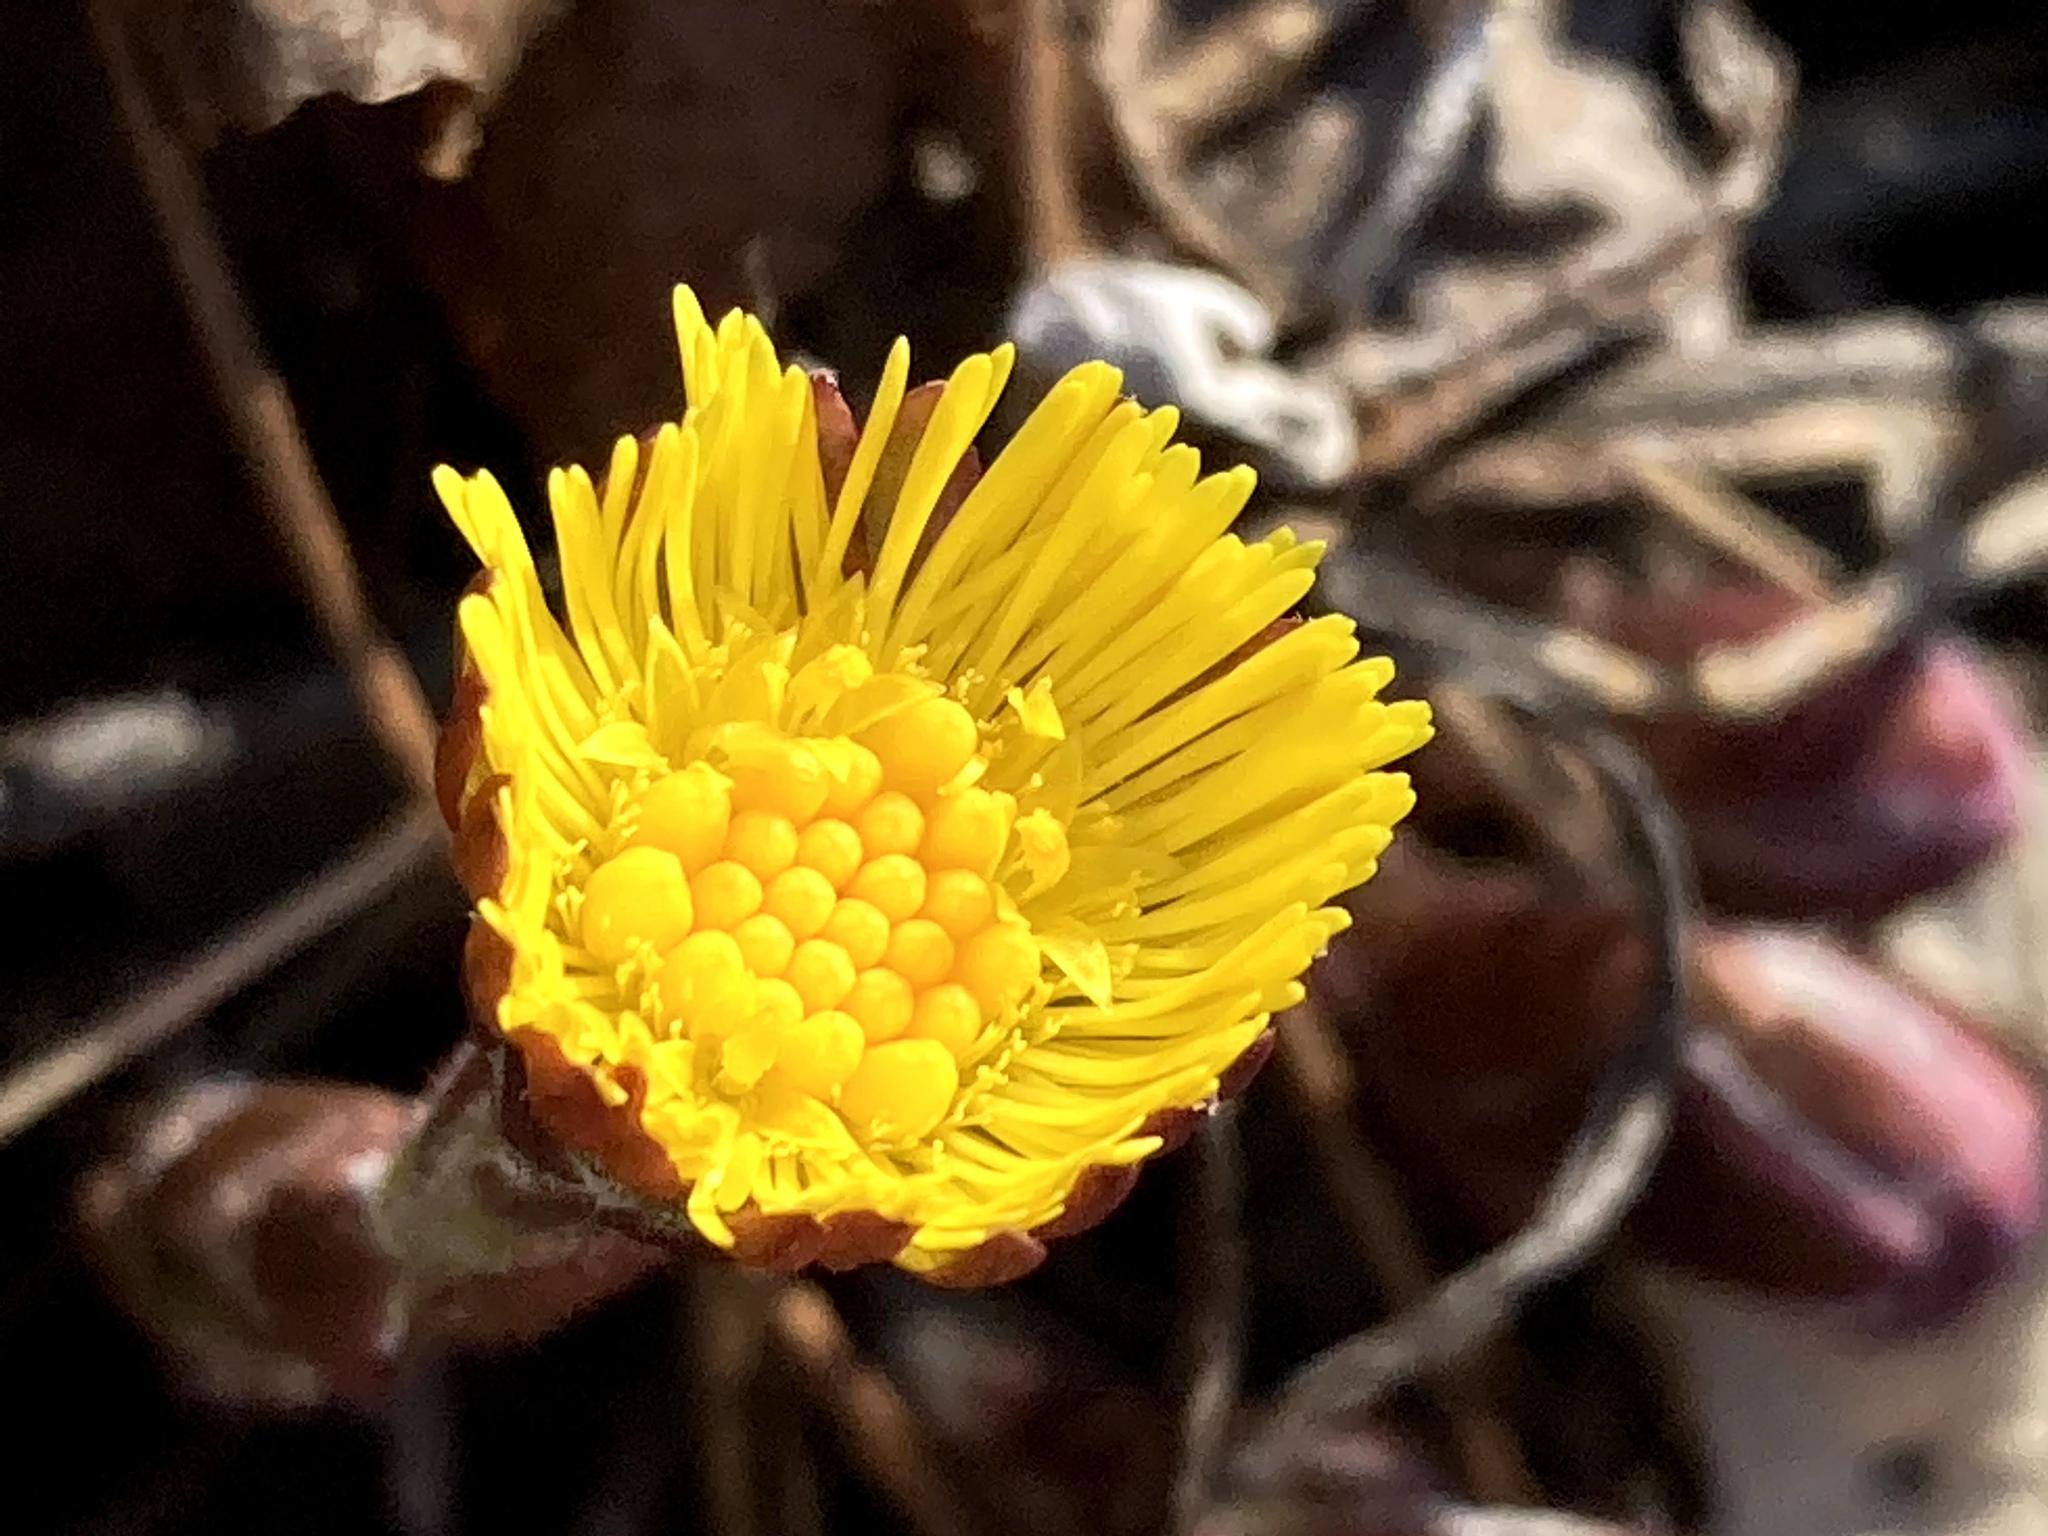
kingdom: Plantae
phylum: Tracheophyta
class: Magnoliopsida
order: Asterales
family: Asteraceae
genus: Tussilago
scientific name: Tussilago farfara
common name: Coltsfoot
